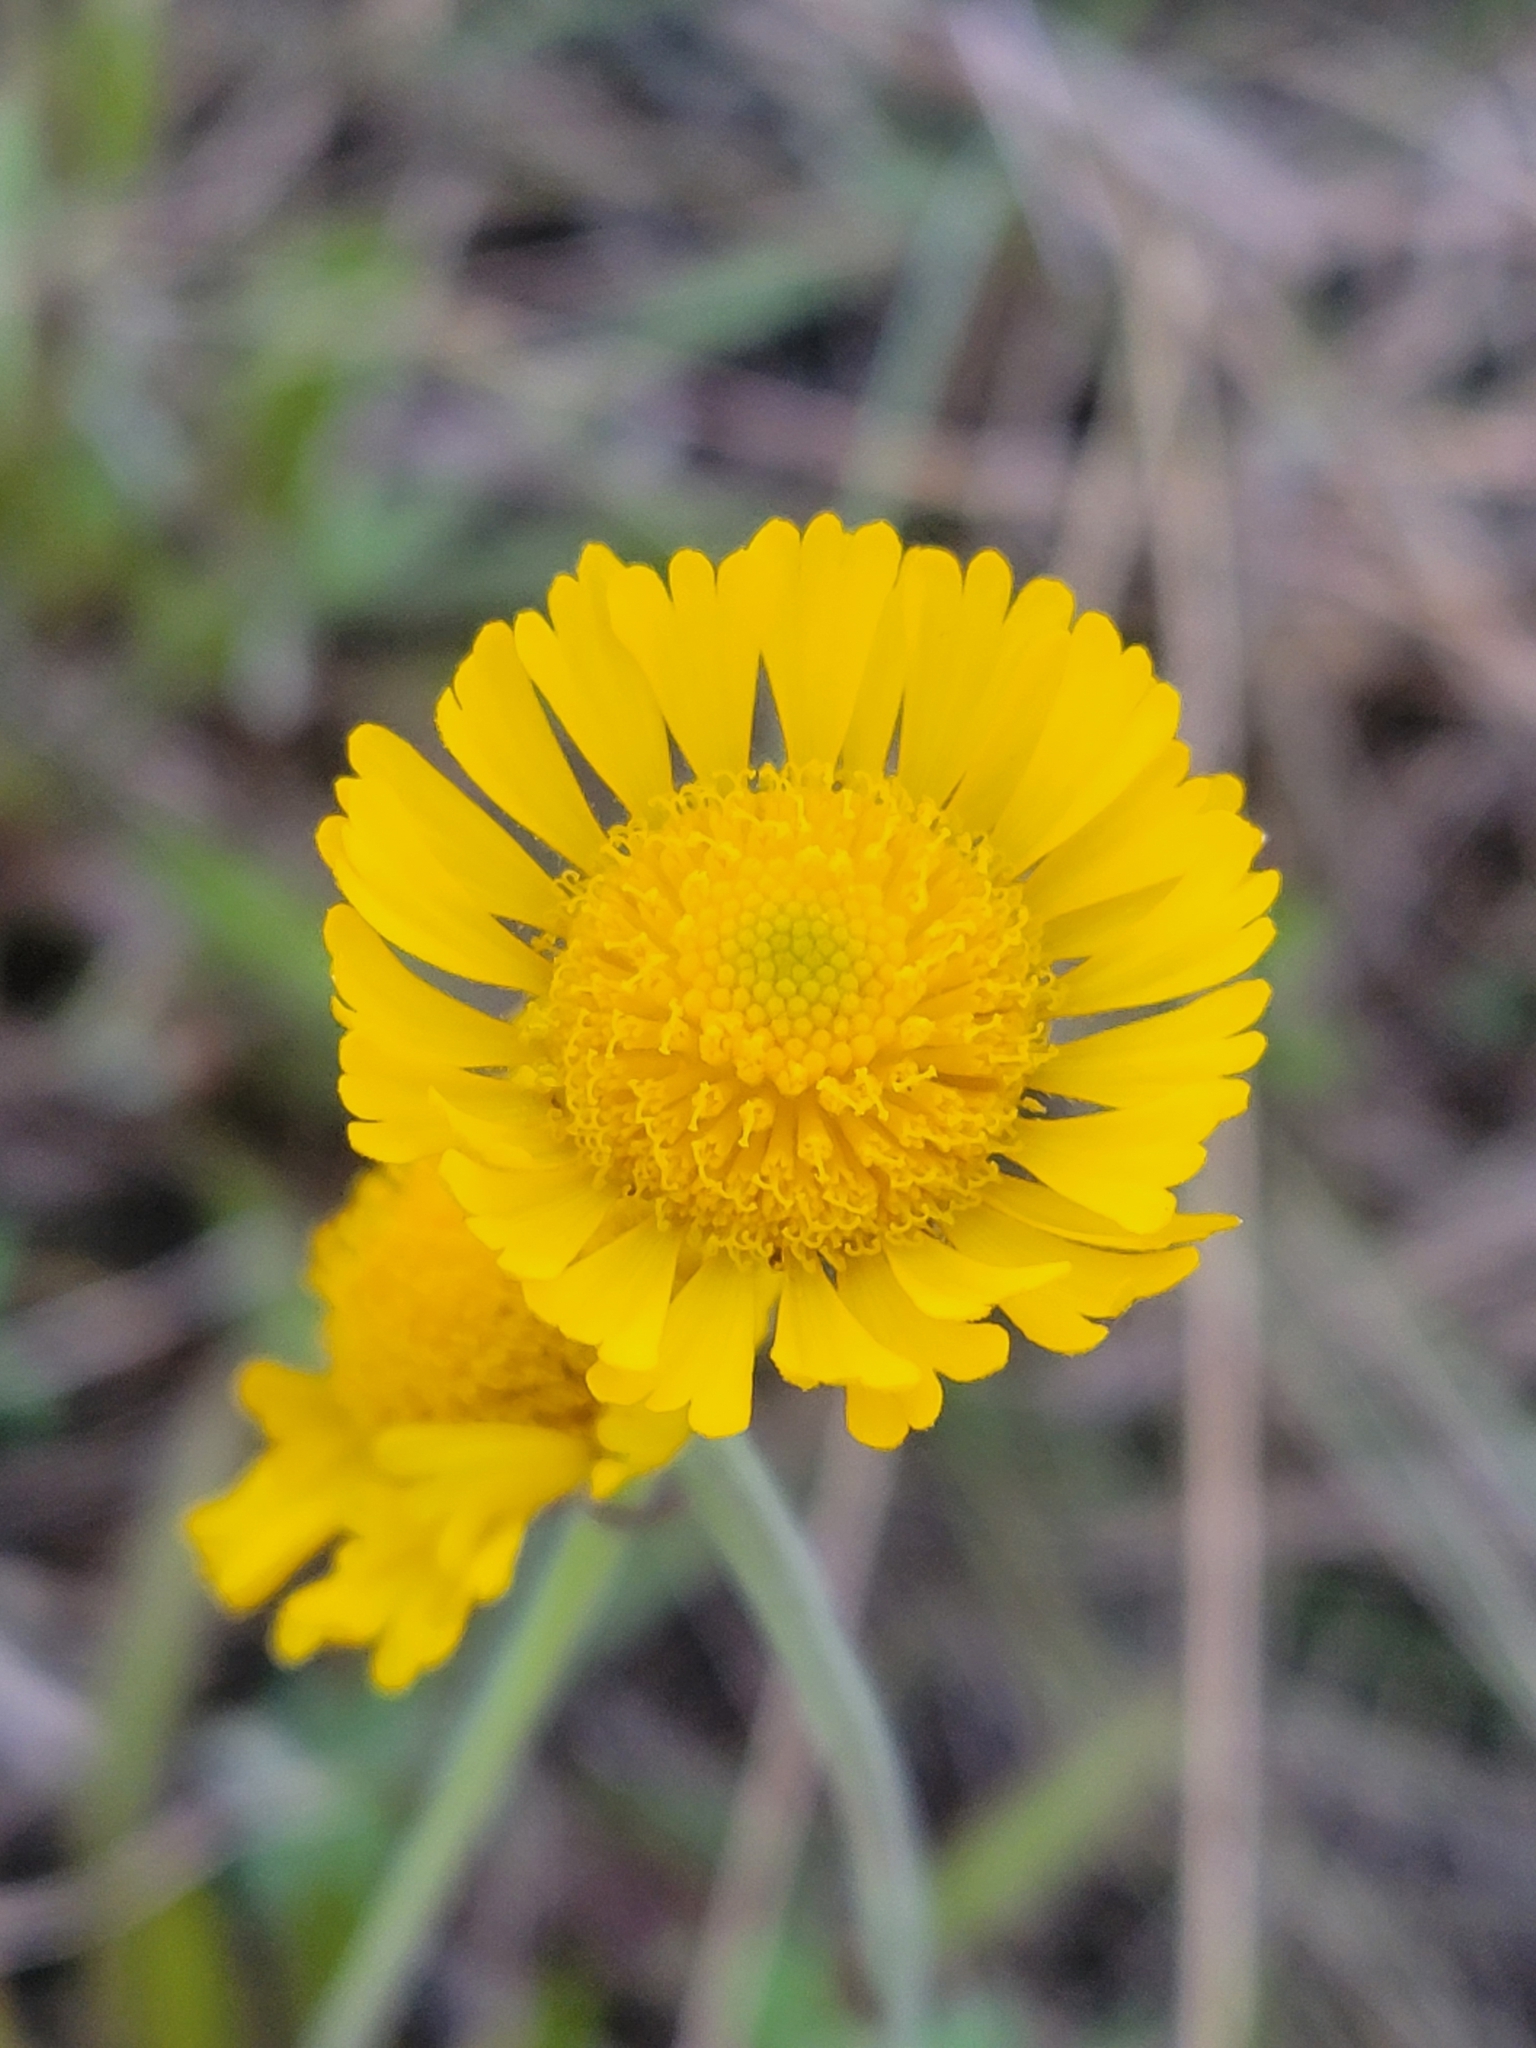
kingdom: Plantae
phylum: Tracheophyta
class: Magnoliopsida
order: Asterales
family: Asteraceae
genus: Helenium
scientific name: Helenium pinnatifidum
